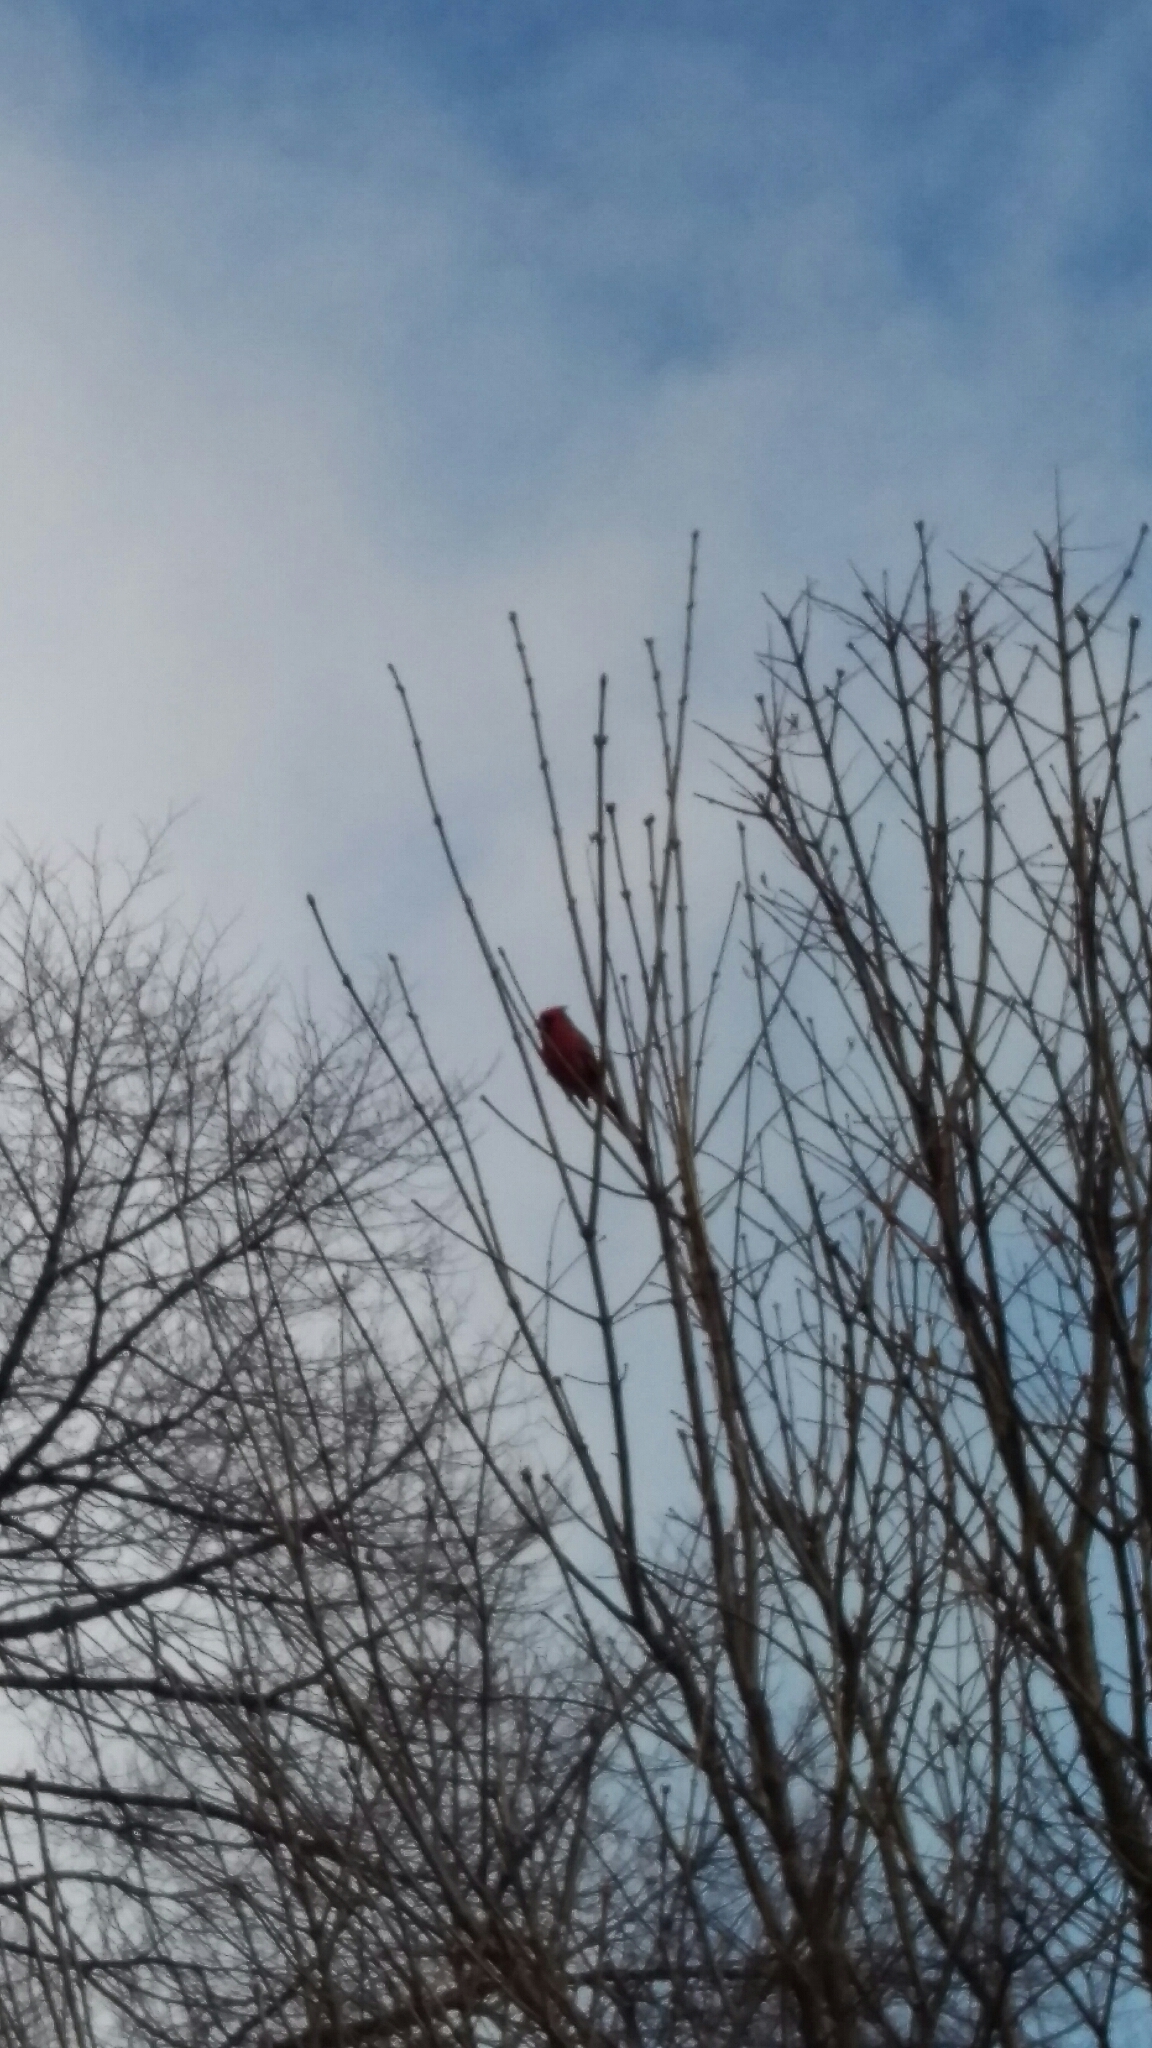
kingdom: Animalia
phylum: Chordata
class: Aves
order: Passeriformes
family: Cardinalidae
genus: Cardinalis
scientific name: Cardinalis cardinalis
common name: Northern cardinal
